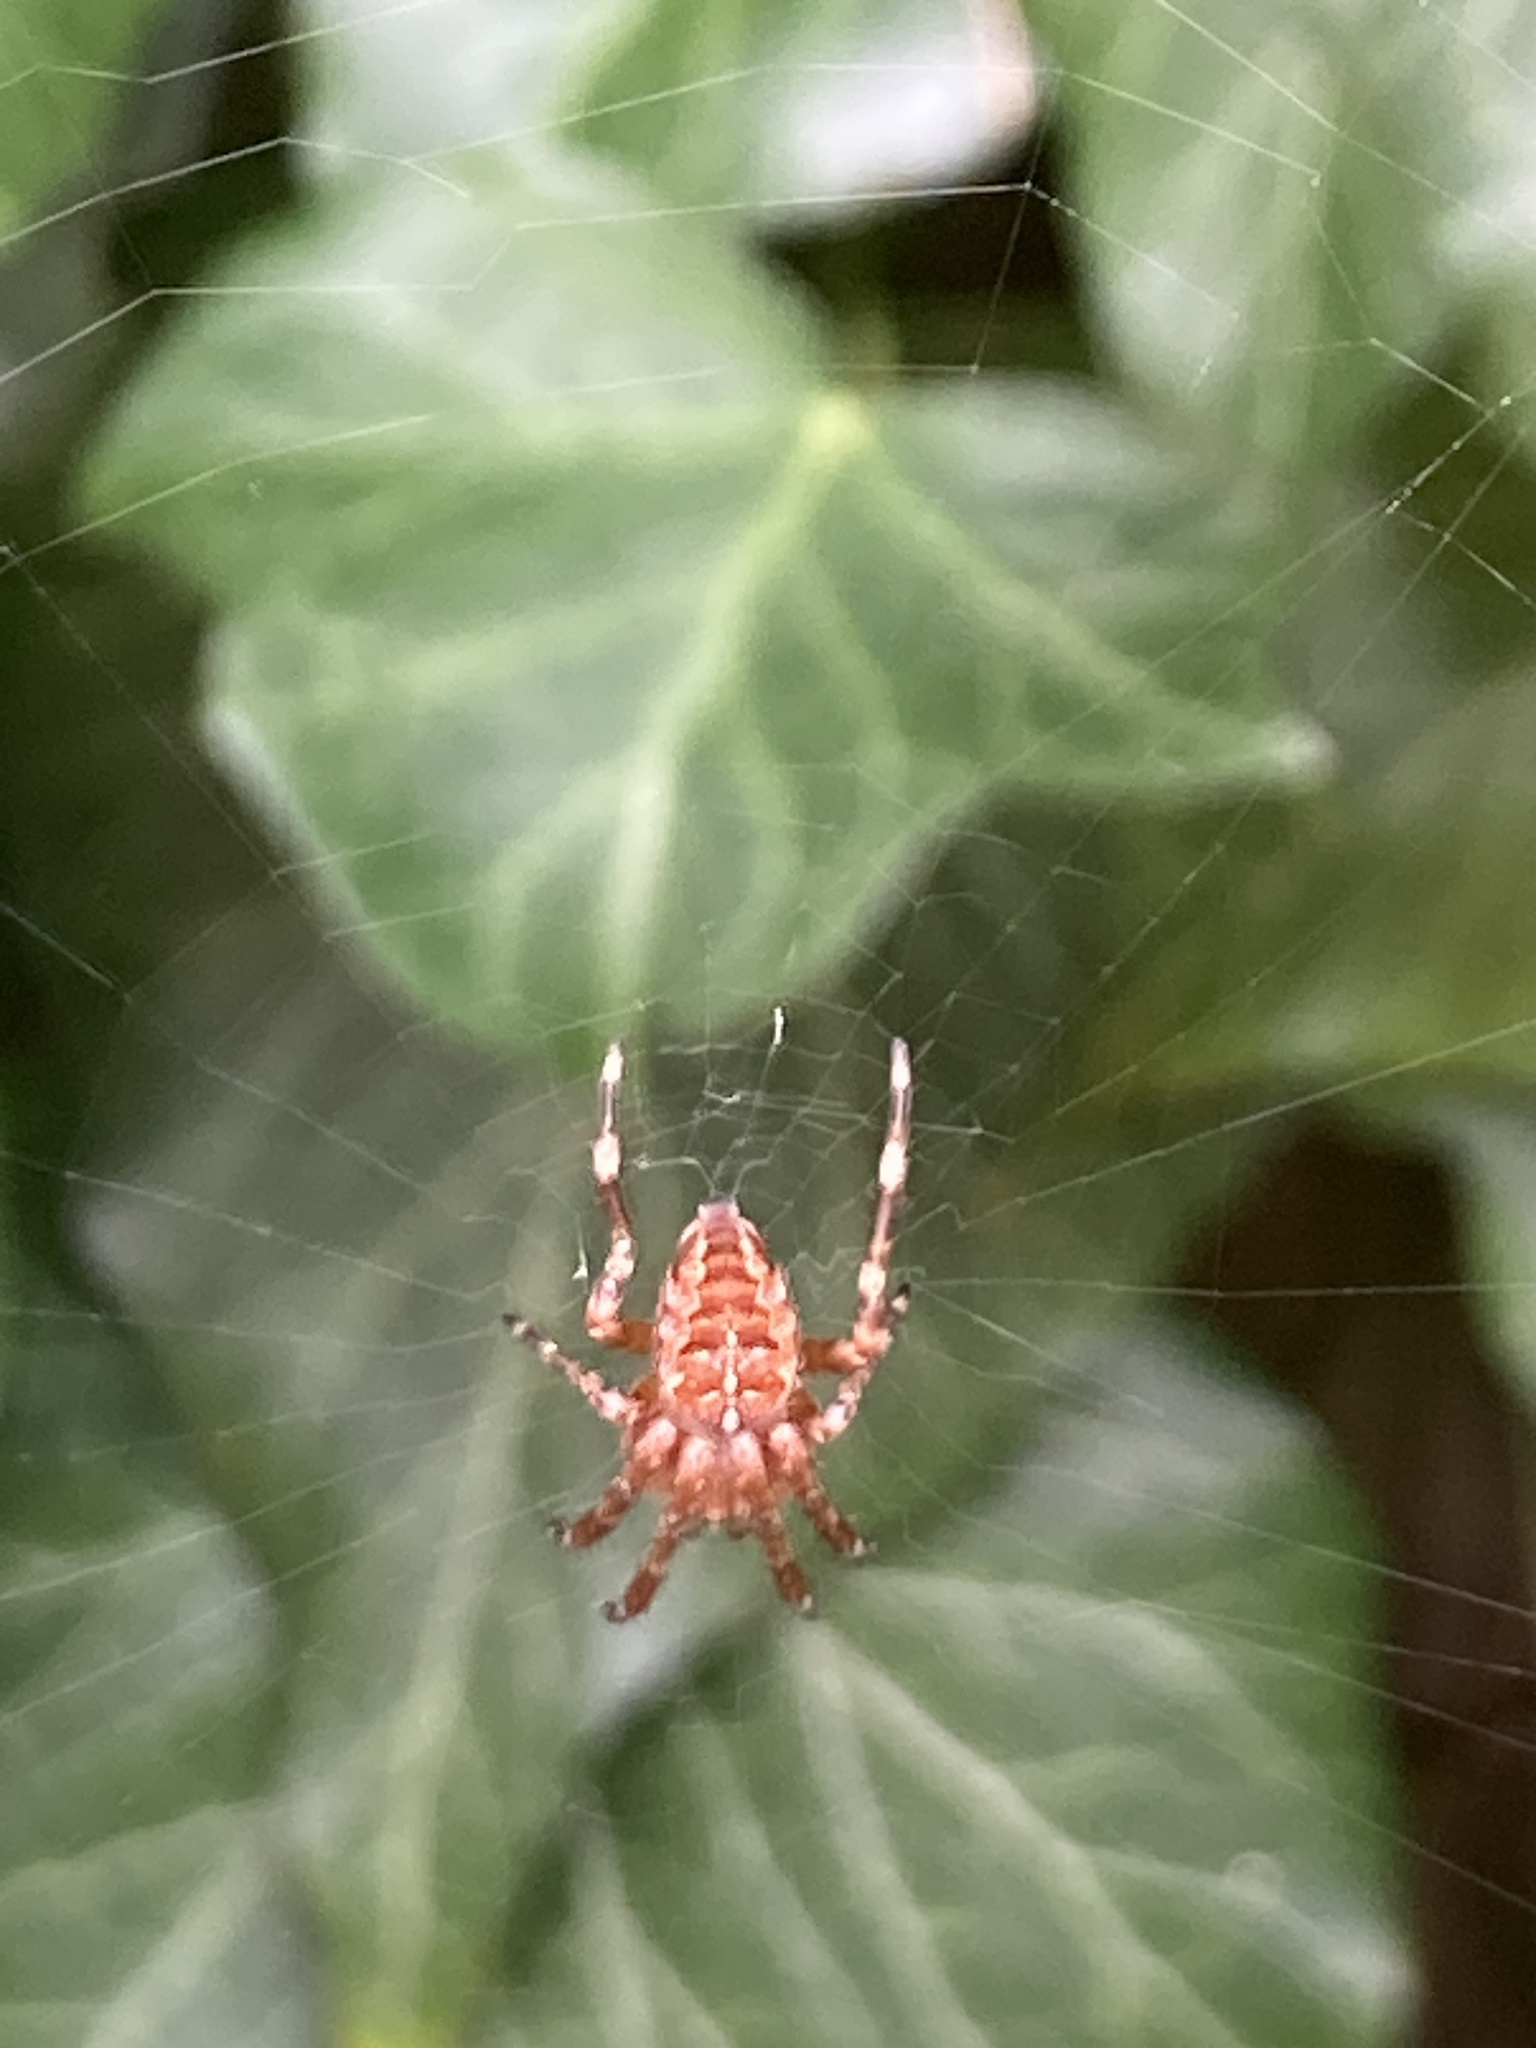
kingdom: Animalia
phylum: Arthropoda
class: Arachnida
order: Araneae
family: Araneidae
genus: Araneus
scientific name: Araneus diadematus
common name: Cross orbweaver
